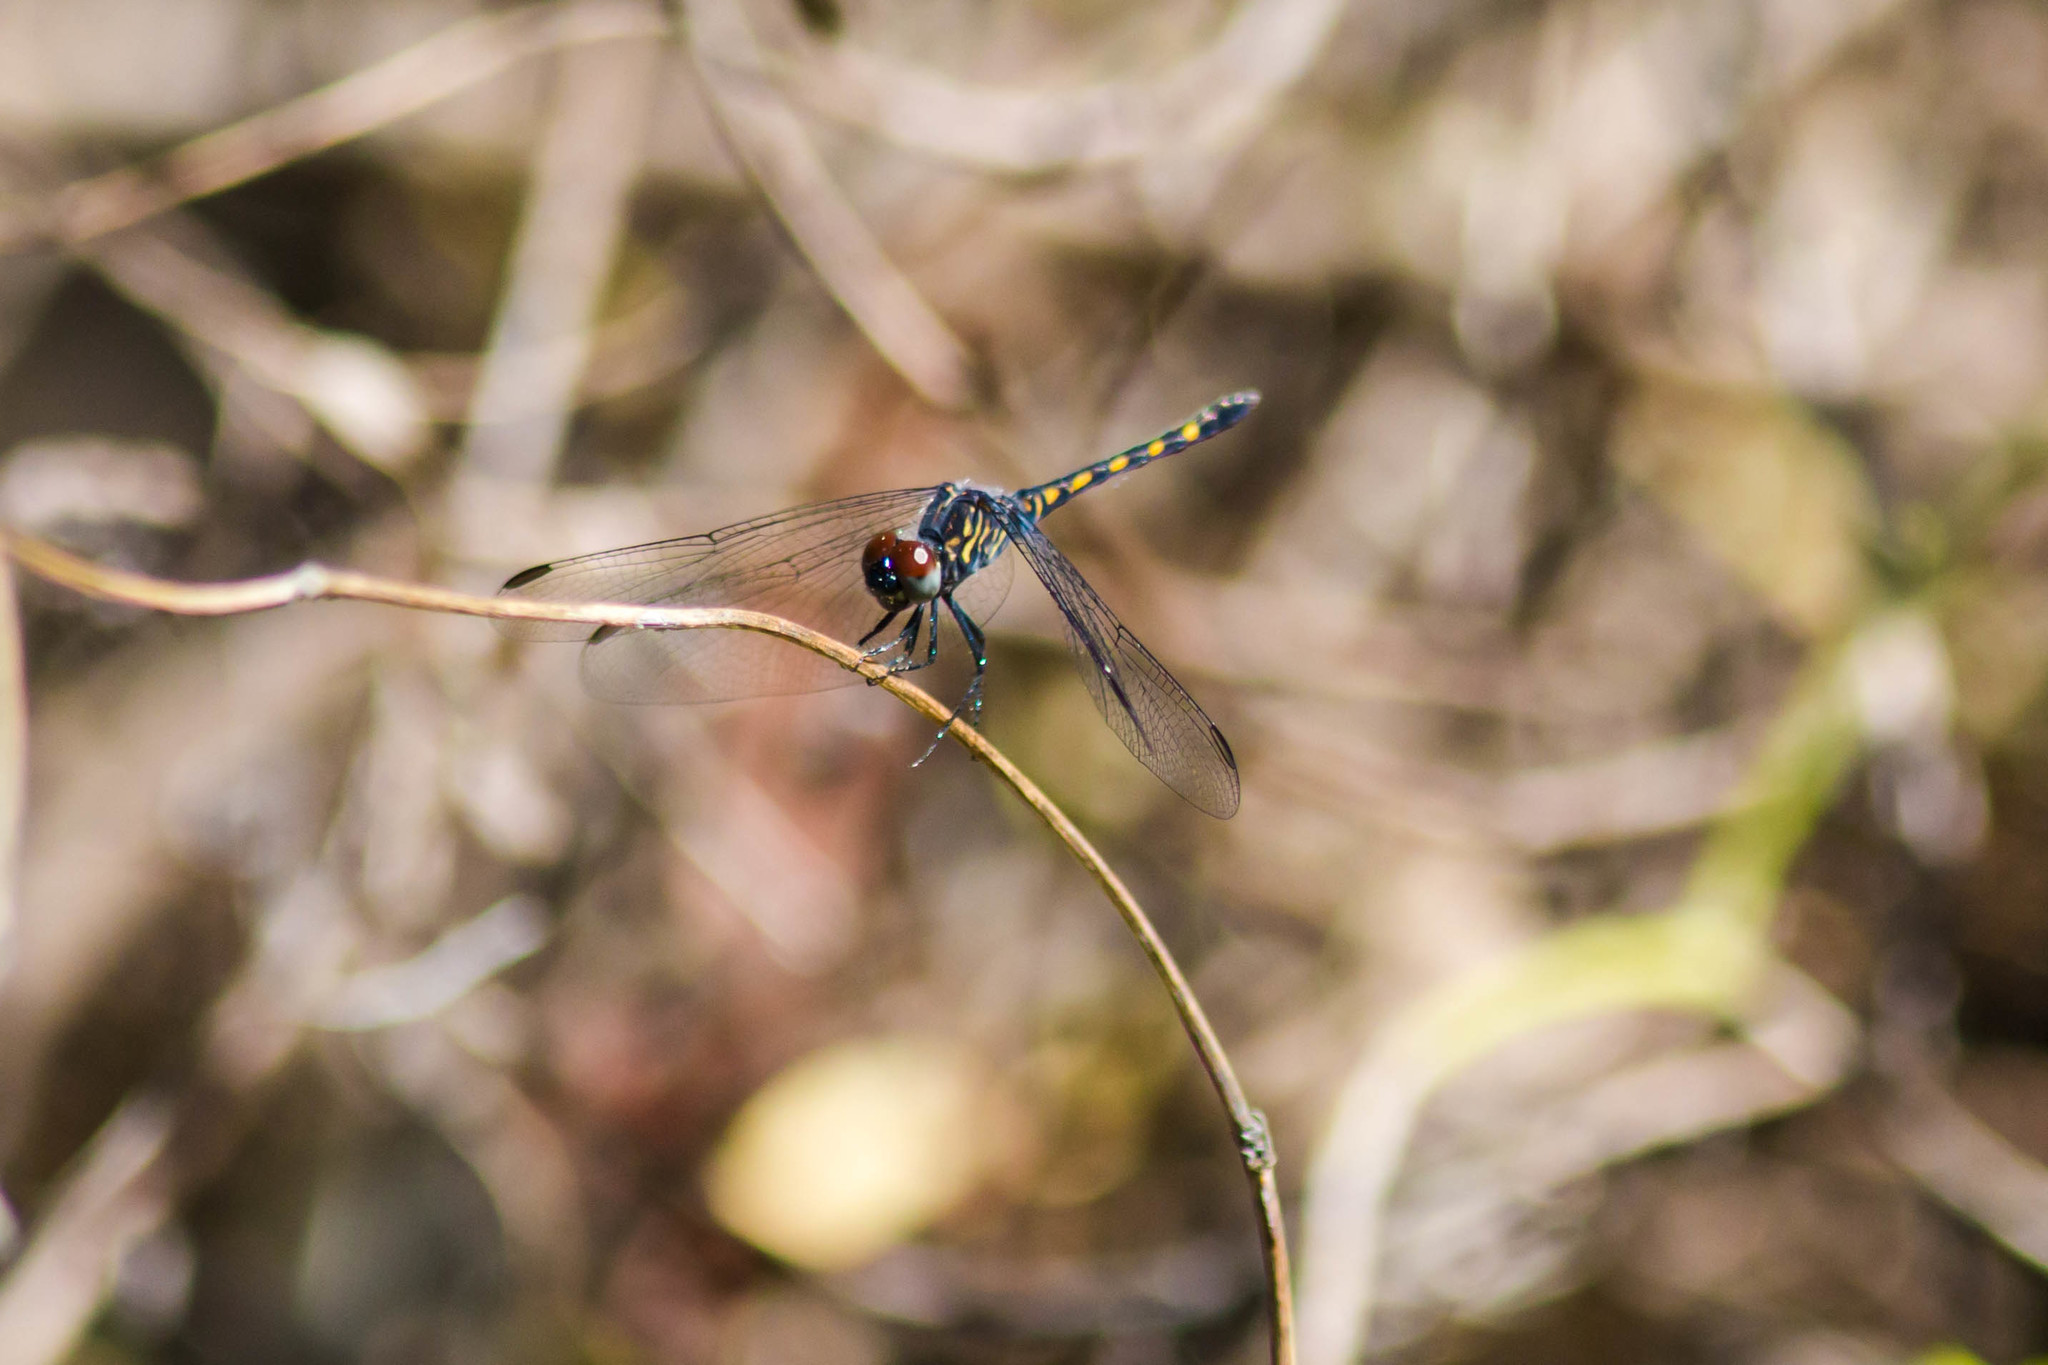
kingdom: Animalia
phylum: Arthropoda
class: Insecta
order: Odonata
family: Libellulidae
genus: Erythrodiplax
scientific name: Erythrodiplax berenice
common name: Seaside dragonlet
